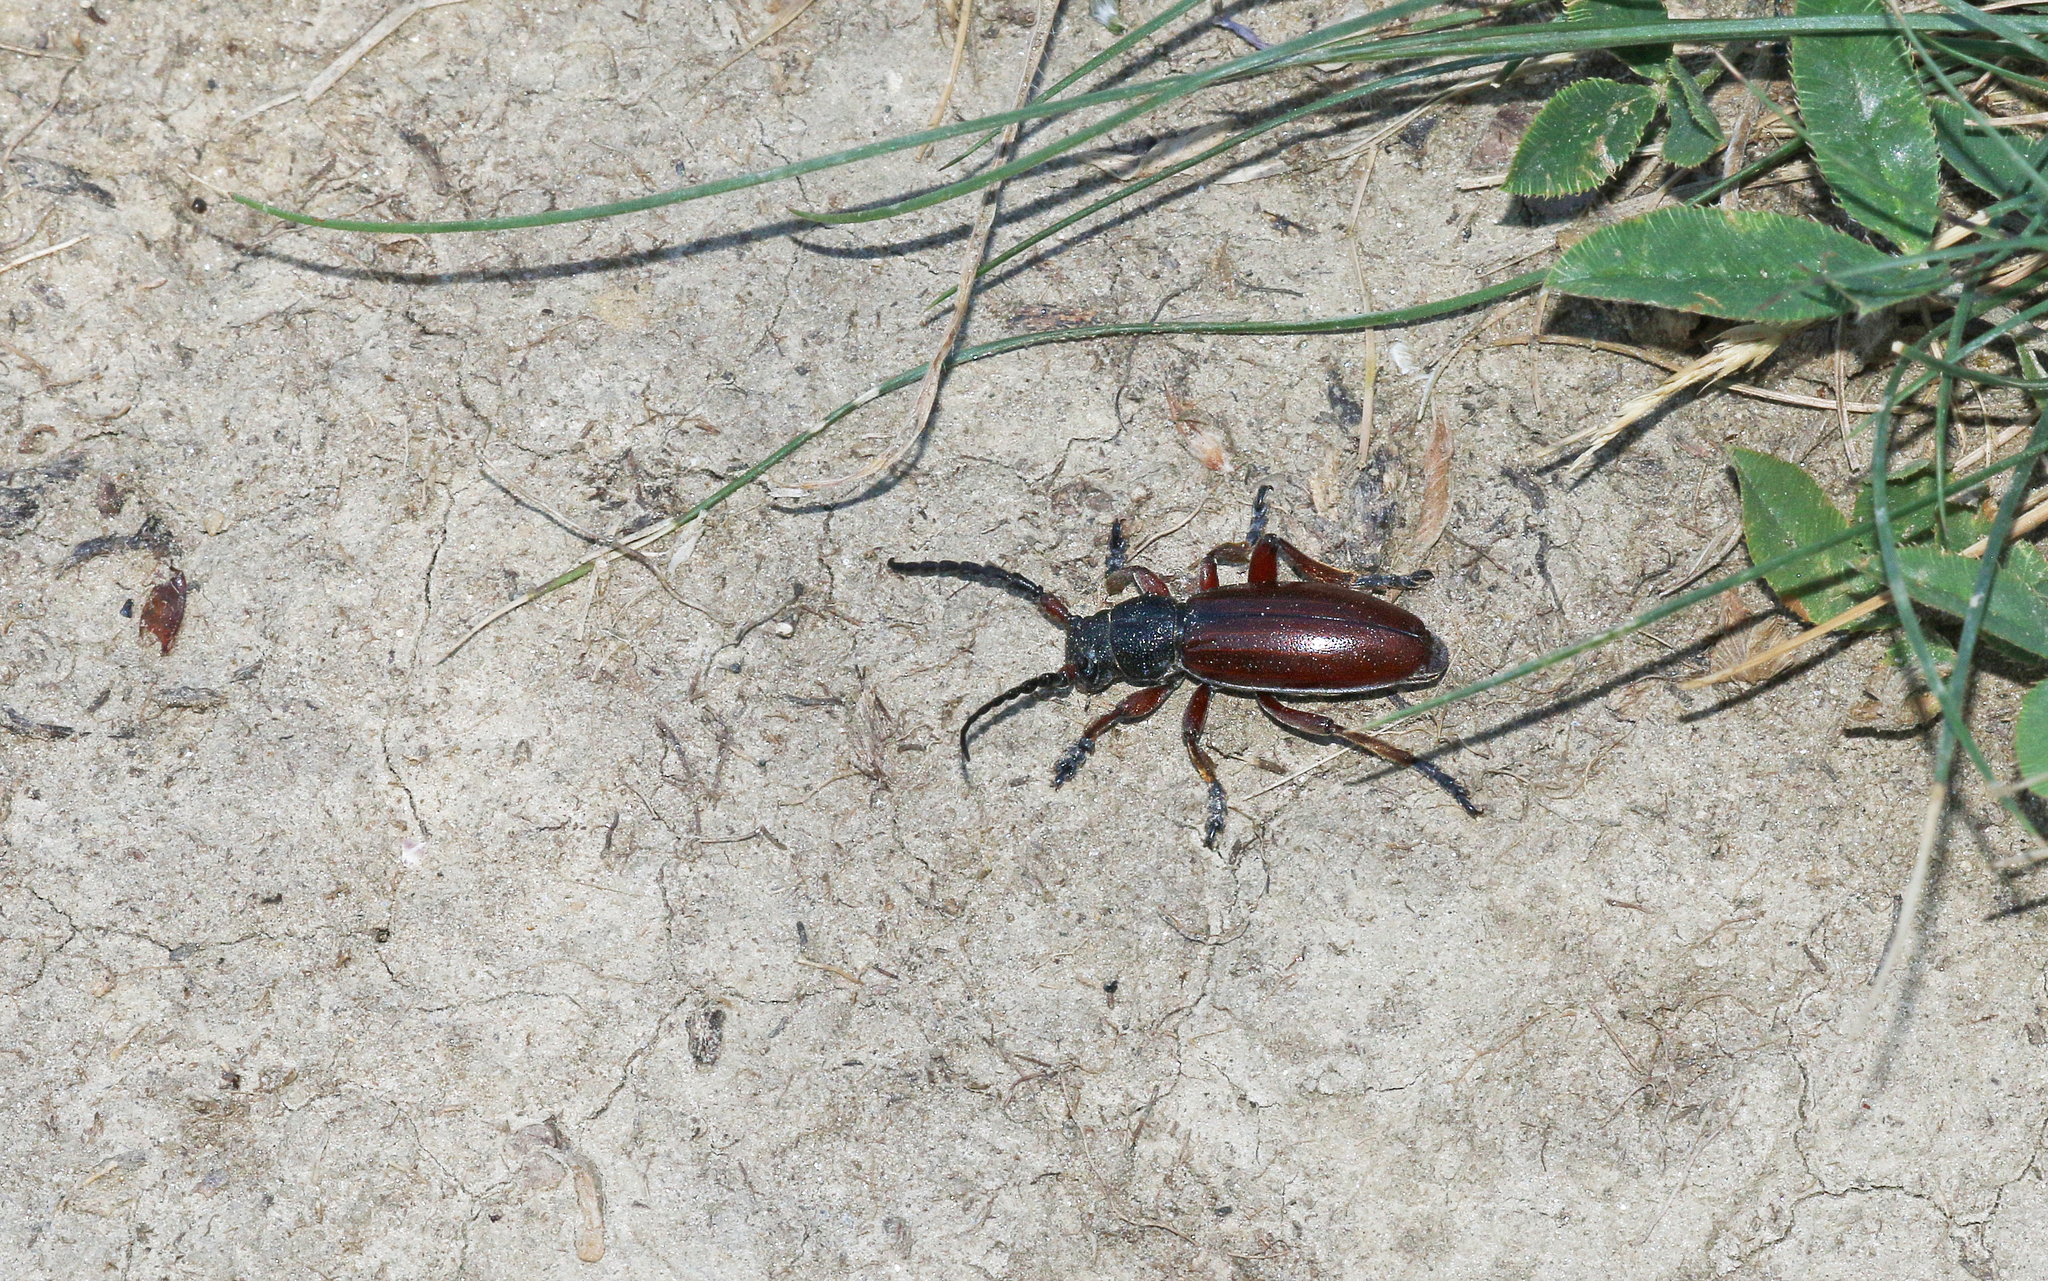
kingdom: Animalia
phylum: Arthropoda
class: Insecta
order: Coleoptera
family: Cerambycidae
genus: Dorcadion
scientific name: Dorcadion fulvum
